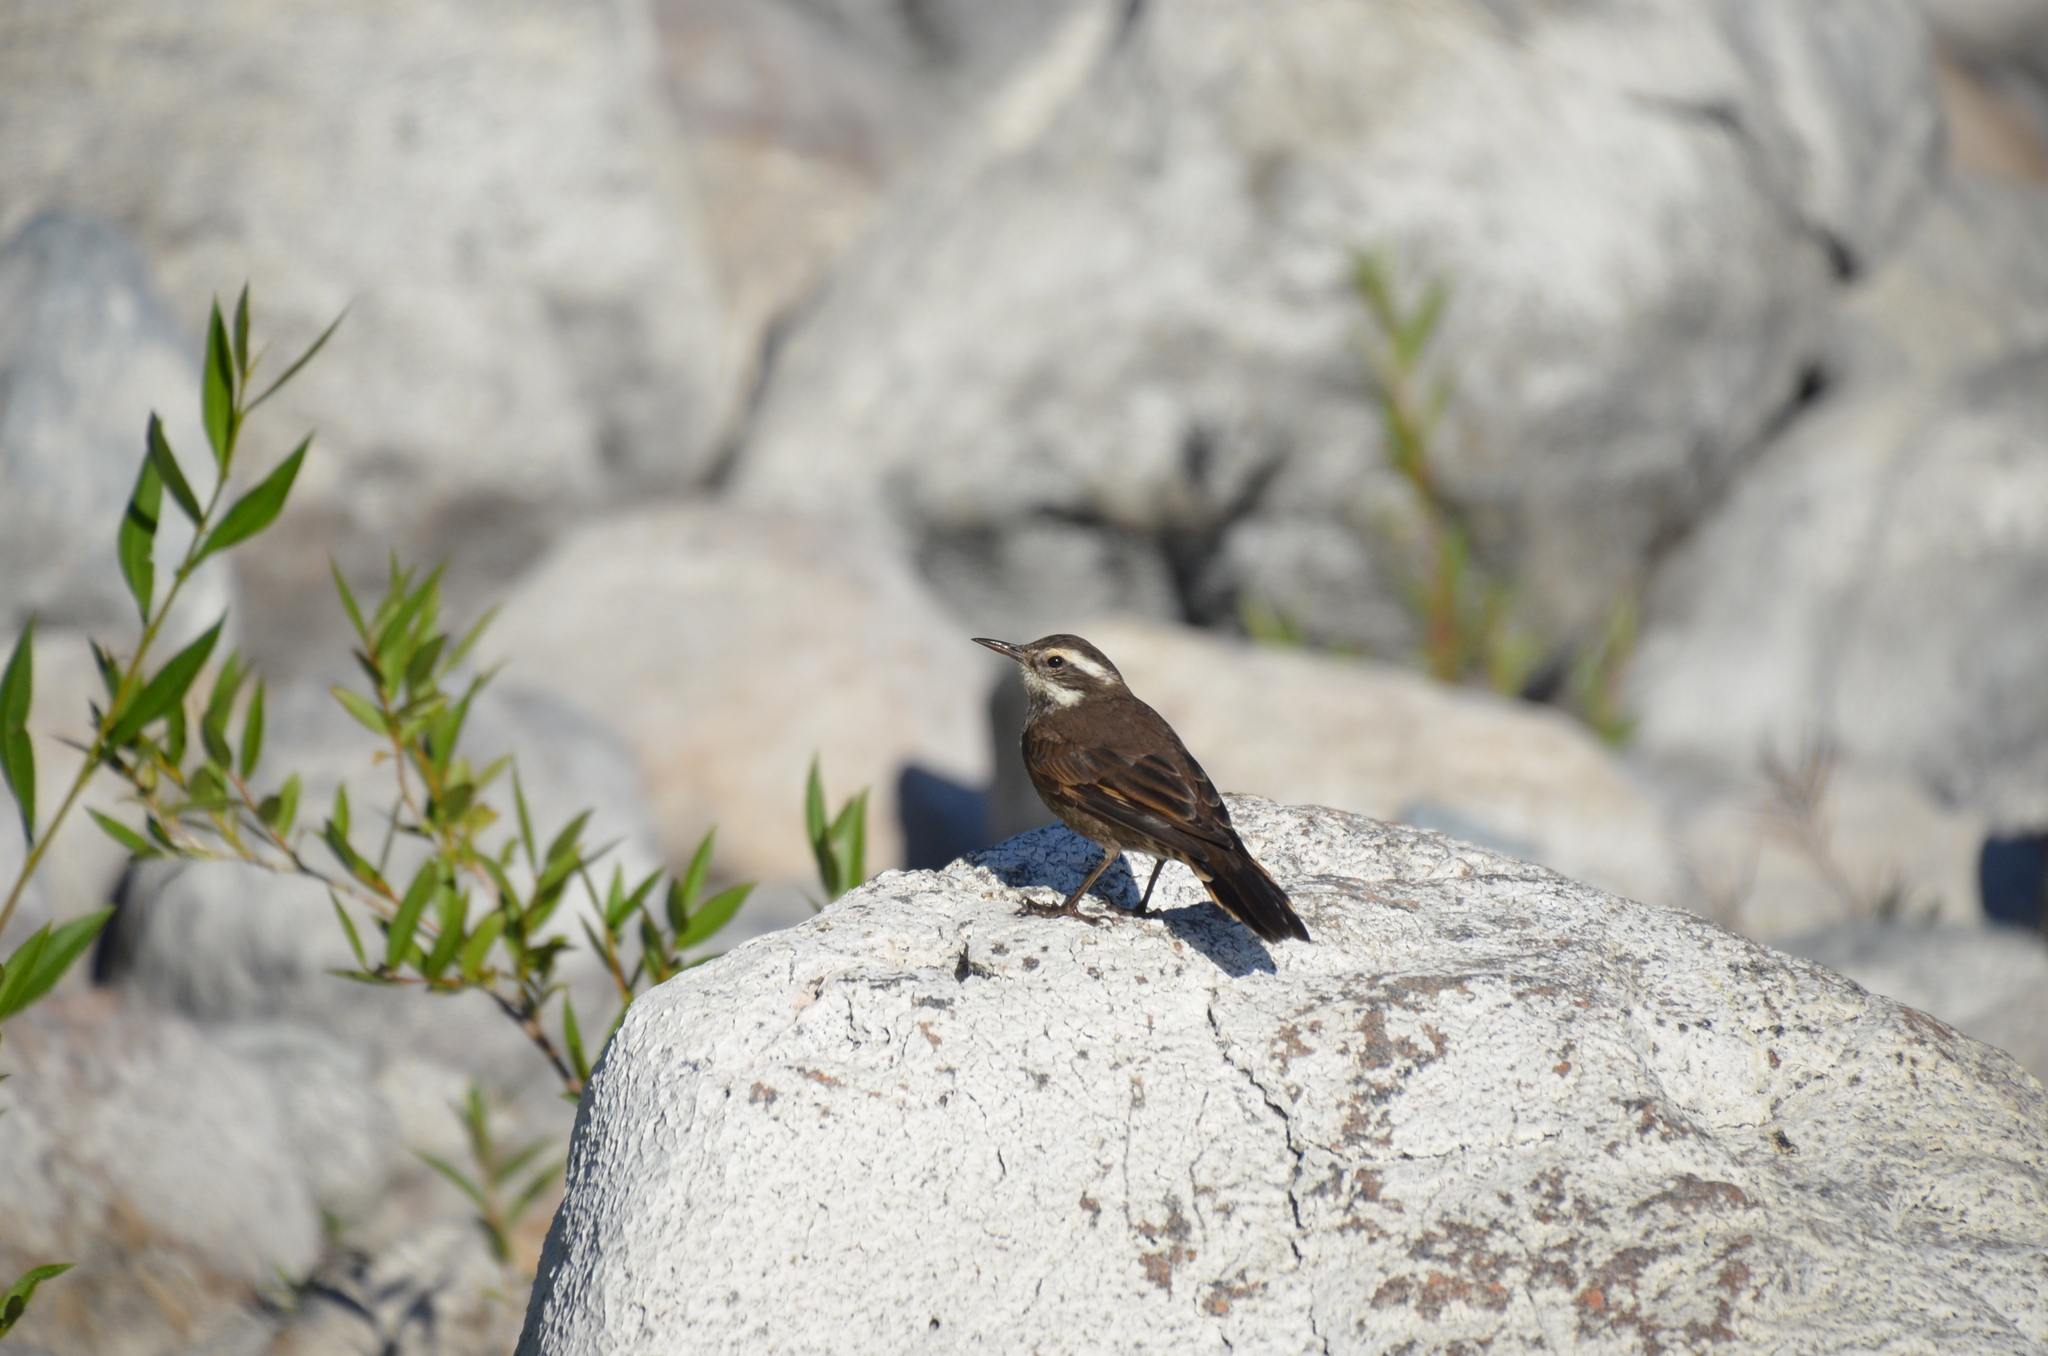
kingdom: Animalia
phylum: Chordata
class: Aves
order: Passeriformes
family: Furnariidae
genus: Cinclodes
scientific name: Cinclodes patagonicus
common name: Dark-bellied cinclodes
